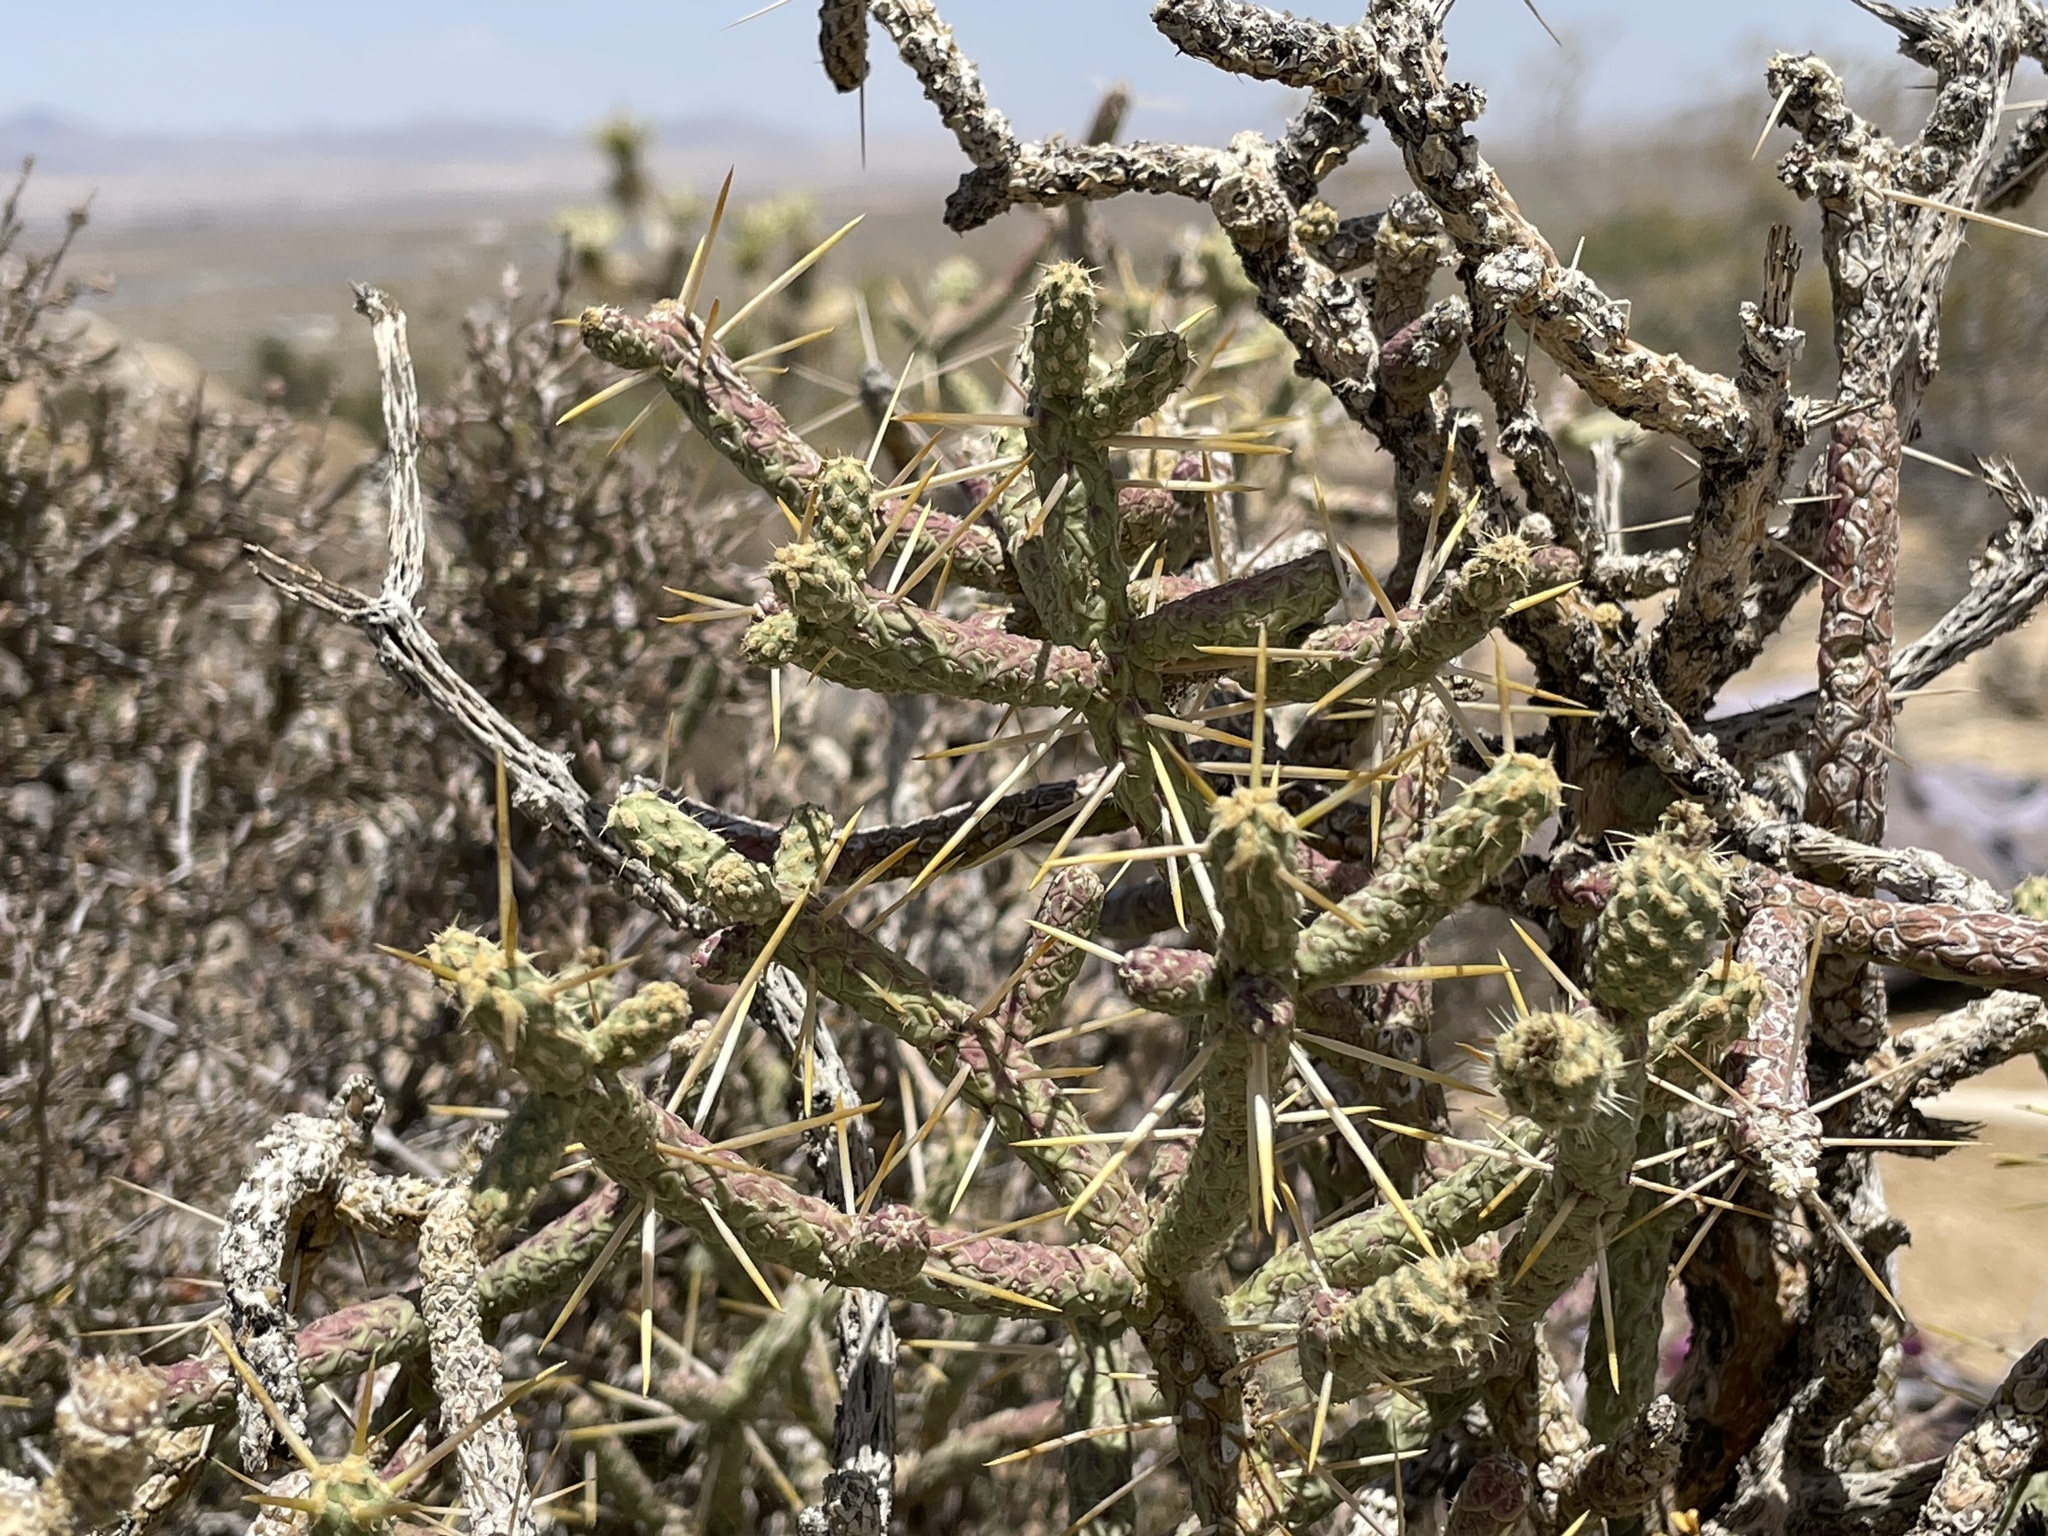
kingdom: Plantae
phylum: Tracheophyta
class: Magnoliopsida
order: Caryophyllales
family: Cactaceae
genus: Cylindropuntia
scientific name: Cylindropuntia ramosissima
